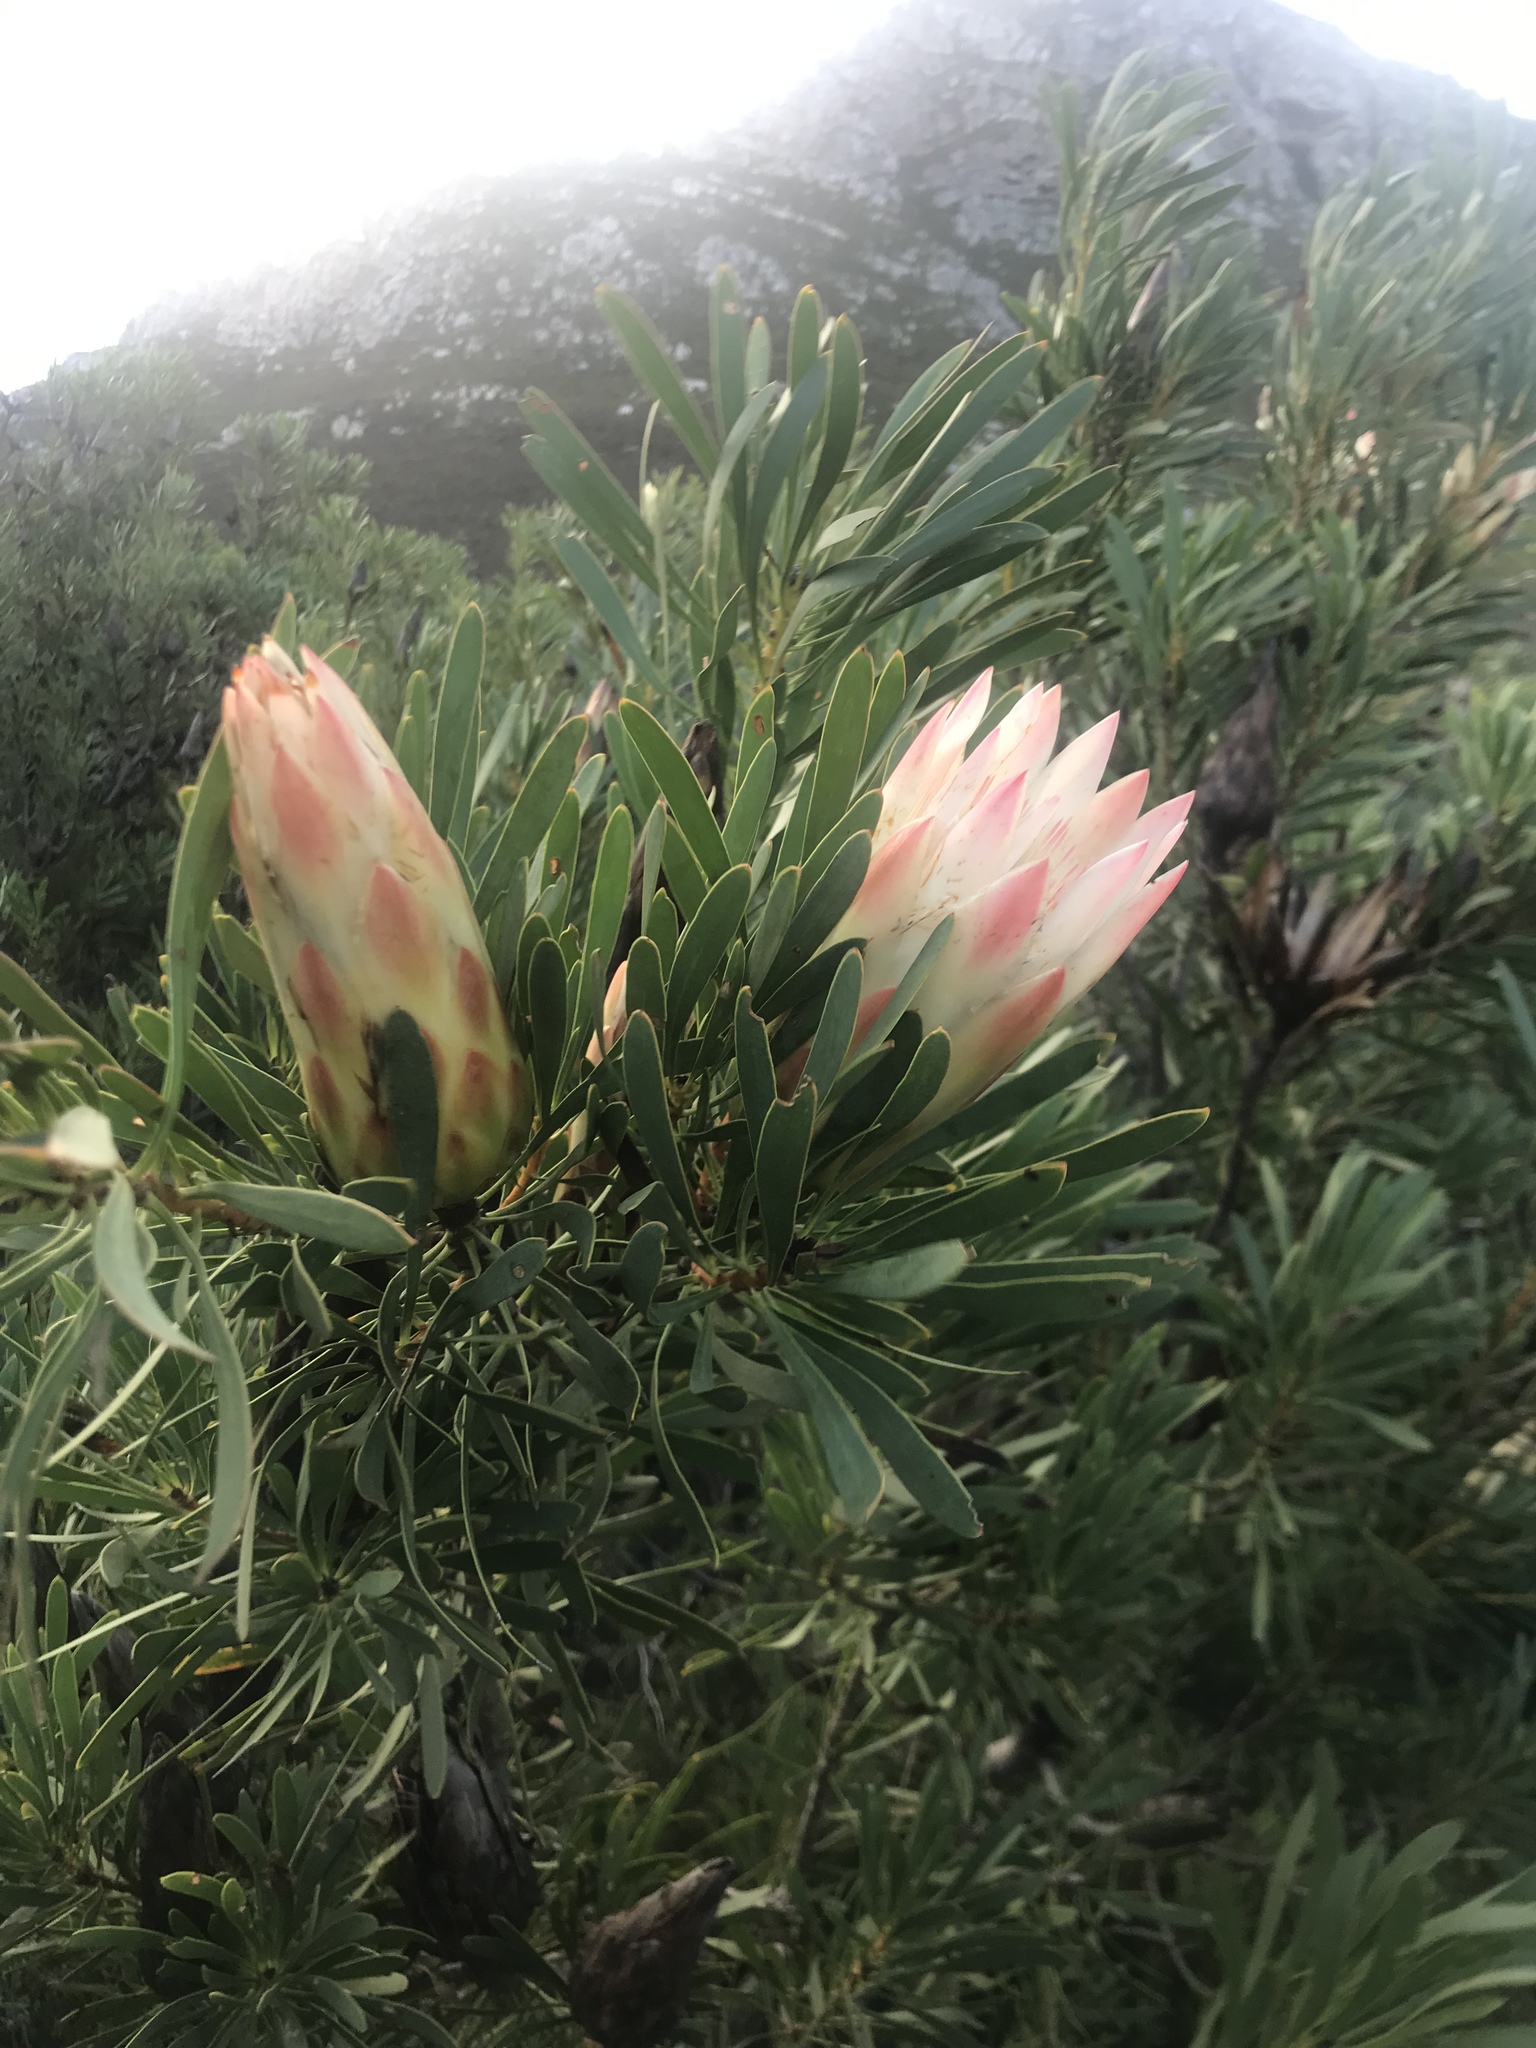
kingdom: Plantae
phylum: Tracheophyta
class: Magnoliopsida
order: Proteales
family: Proteaceae
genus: Protea
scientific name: Protea repens
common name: Sugarbush
